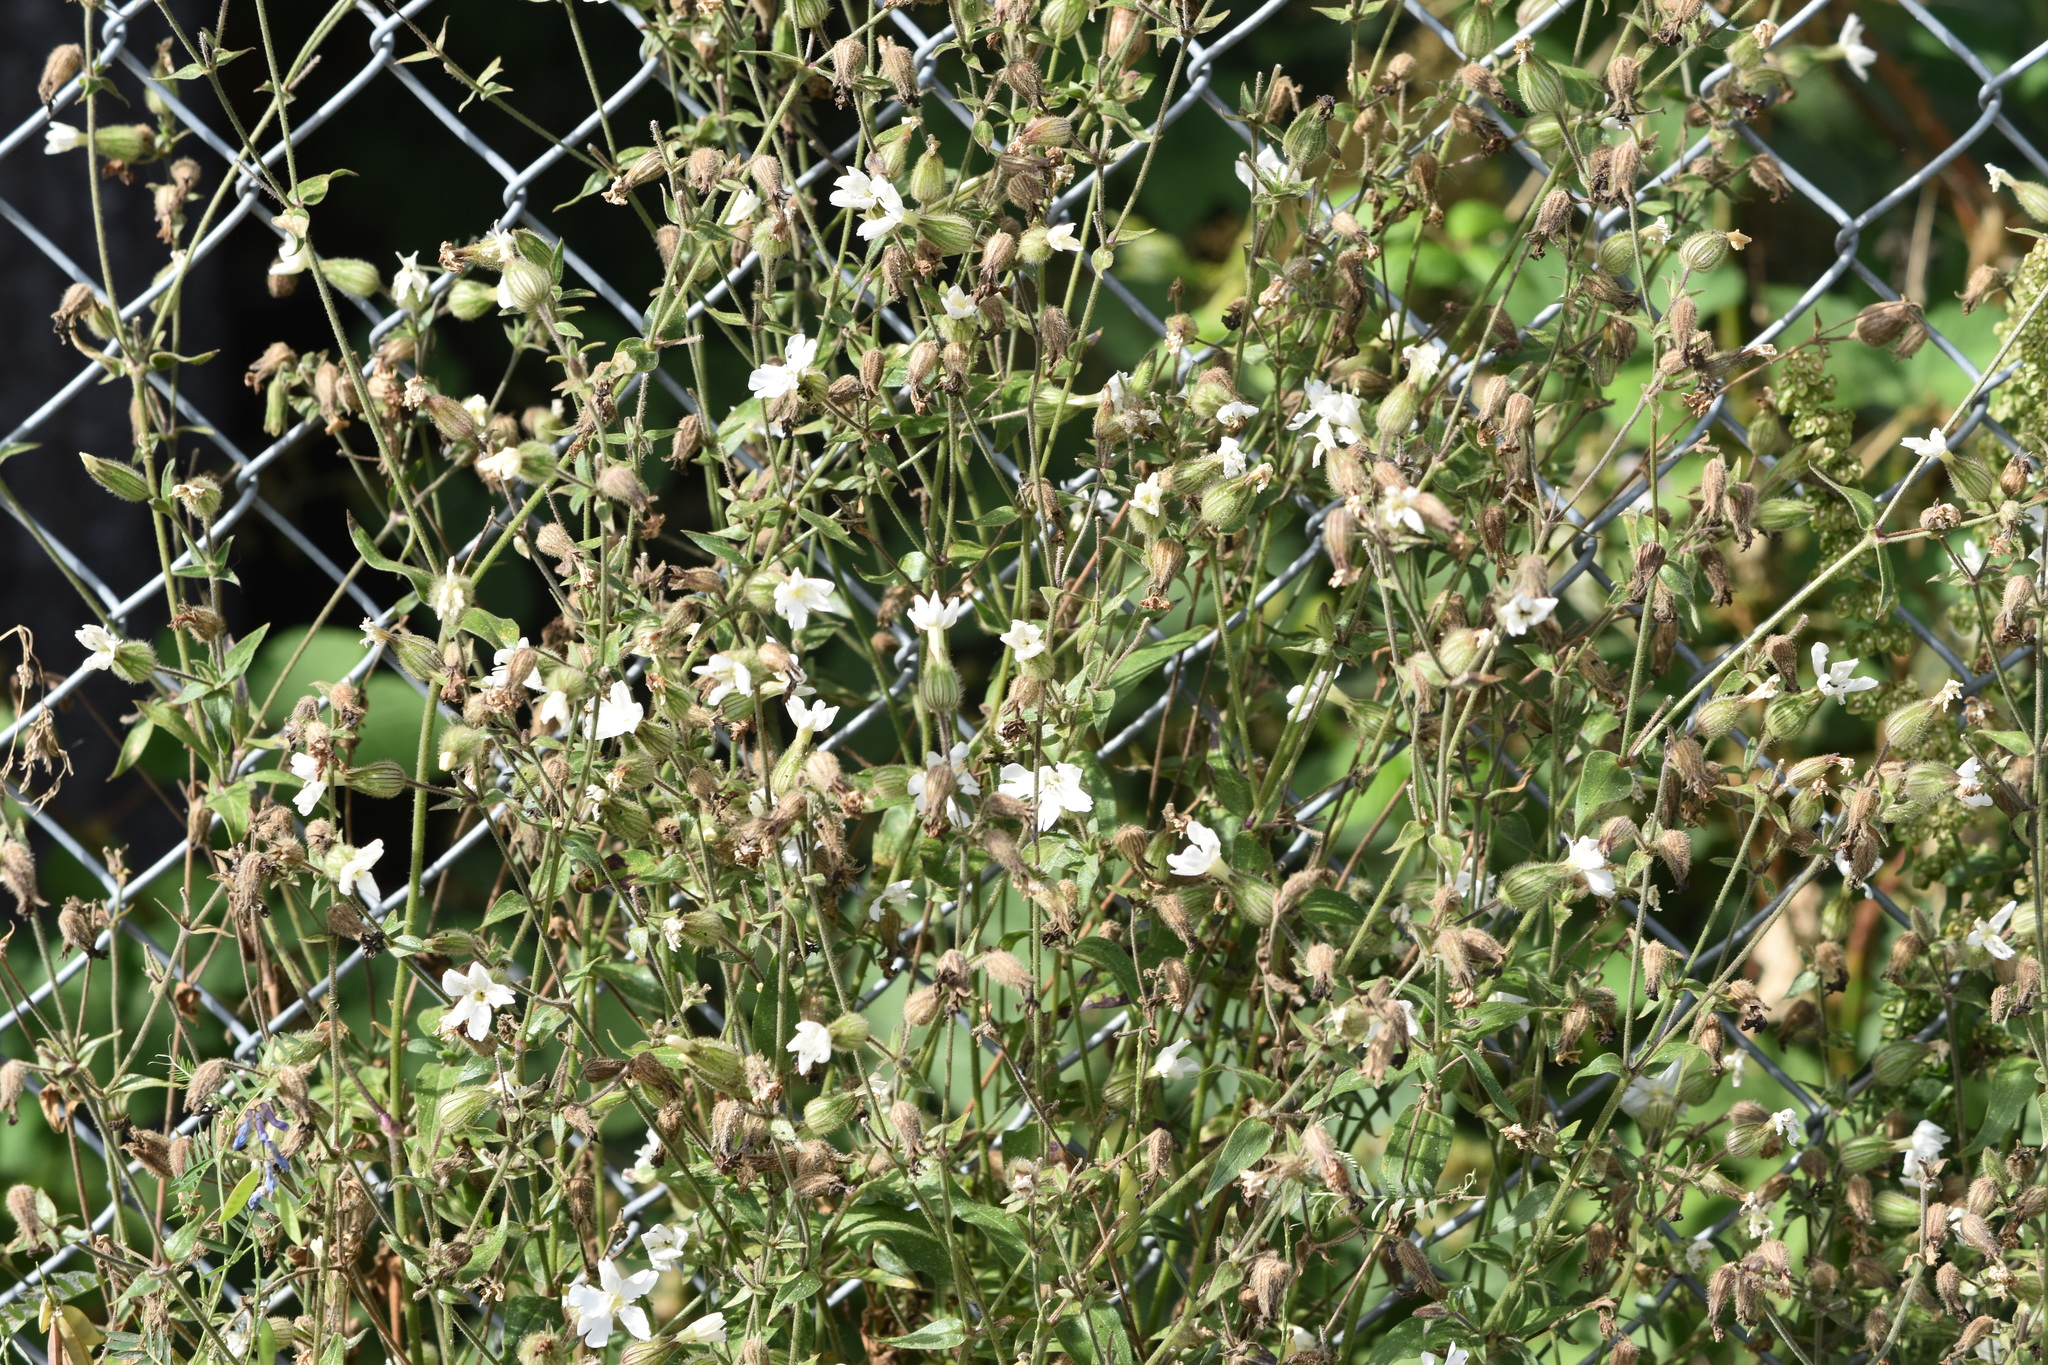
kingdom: Plantae
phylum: Tracheophyta
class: Magnoliopsida
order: Caryophyllales
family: Caryophyllaceae
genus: Silene
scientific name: Silene latifolia
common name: White campion
